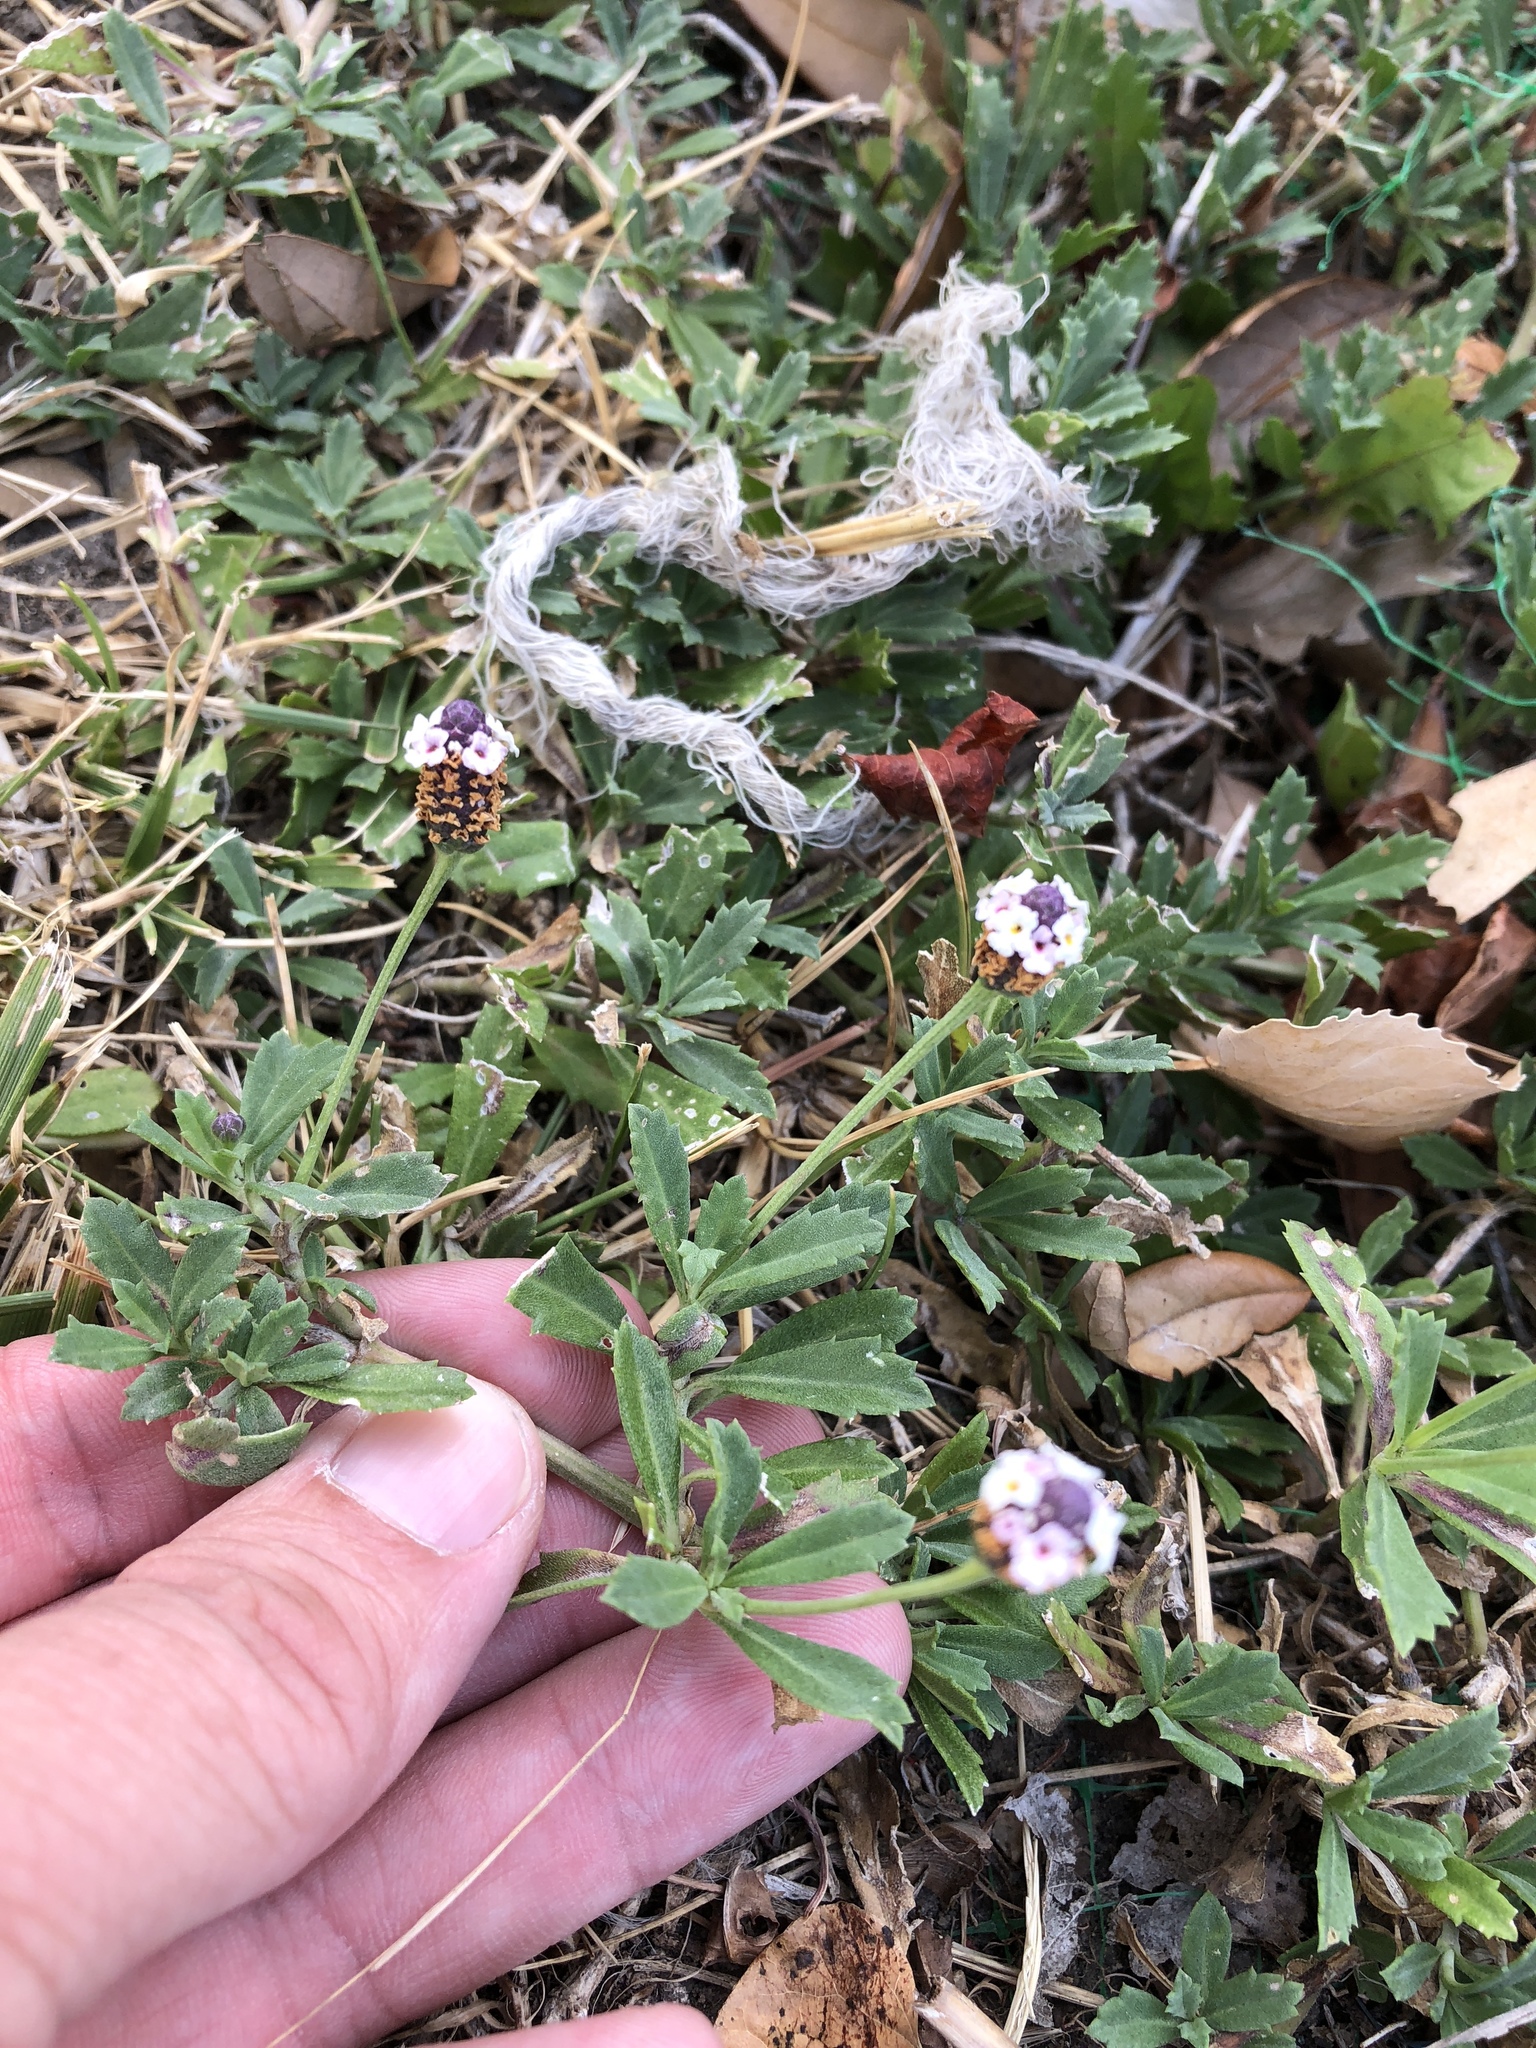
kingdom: Plantae
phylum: Tracheophyta
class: Magnoliopsida
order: Lamiales
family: Verbenaceae
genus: Phyla
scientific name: Phyla nodiflora
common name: Frogfruit
